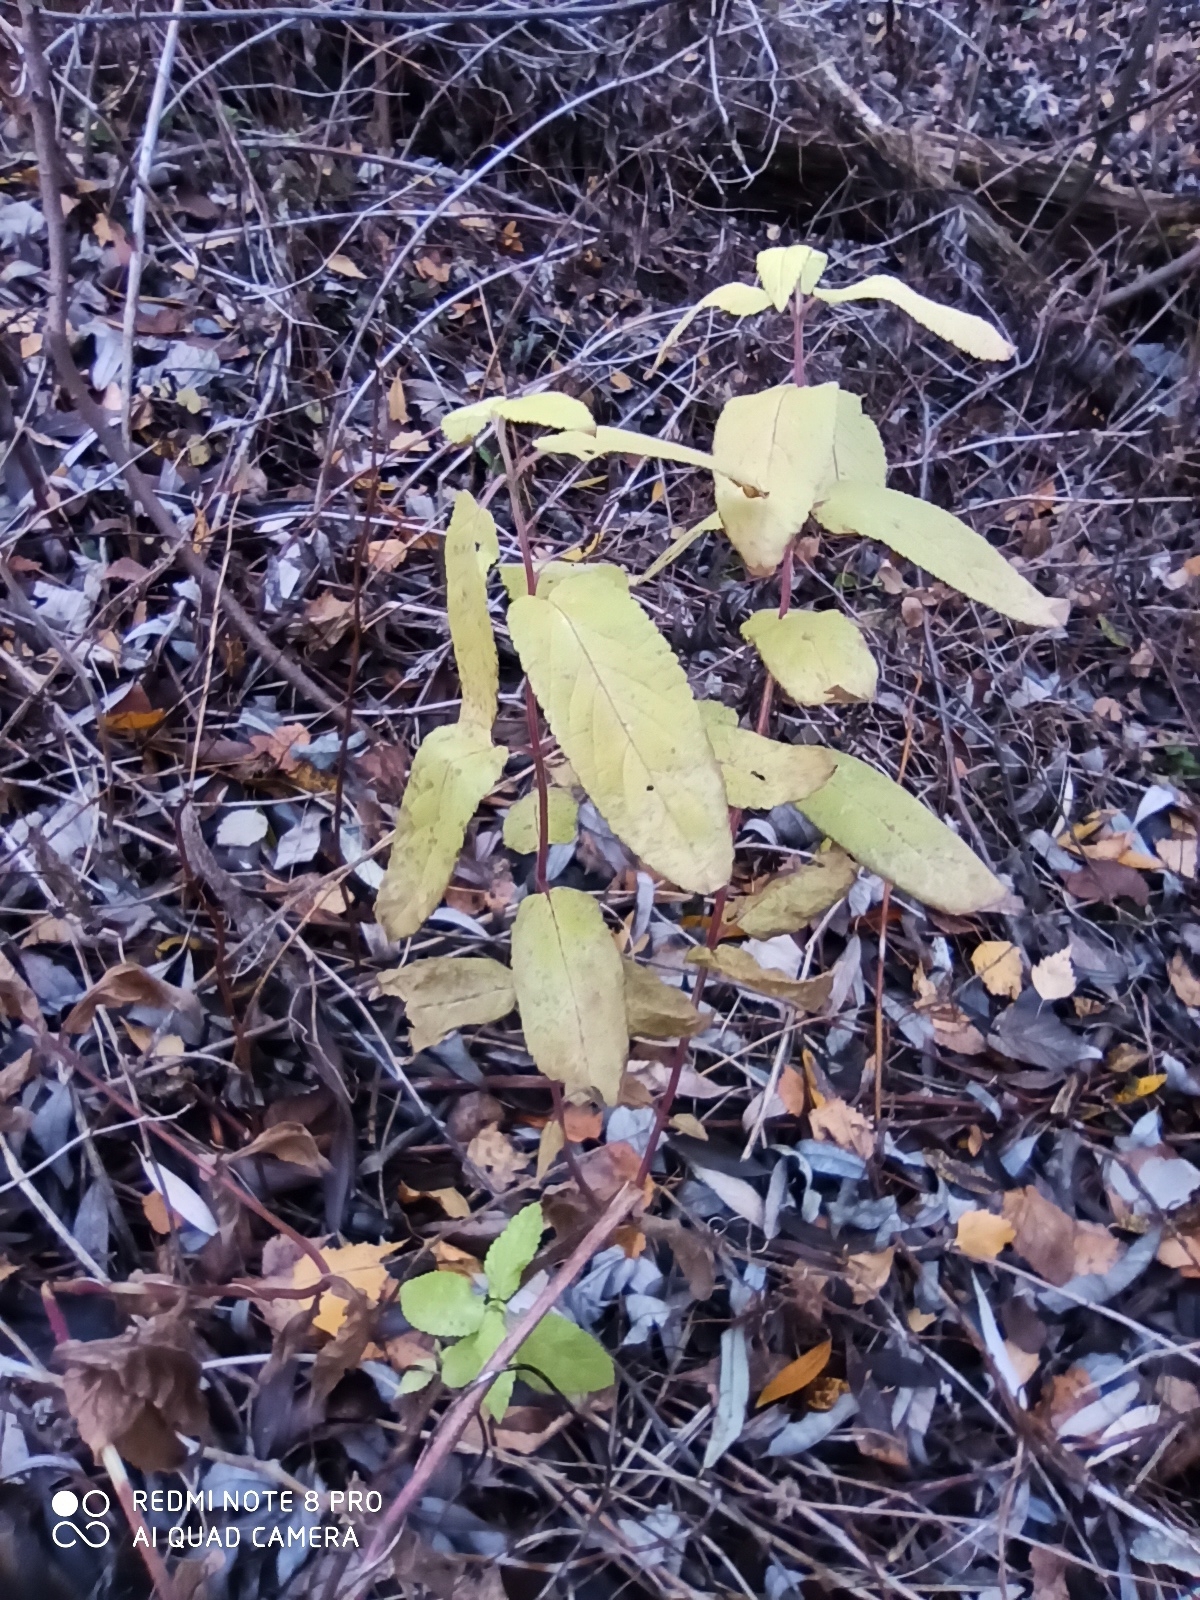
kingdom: Plantae
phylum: Tracheophyta
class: Magnoliopsida
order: Lamiales
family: Lamiaceae
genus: Stachys
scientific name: Stachys palustris
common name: Marsh woundwort
